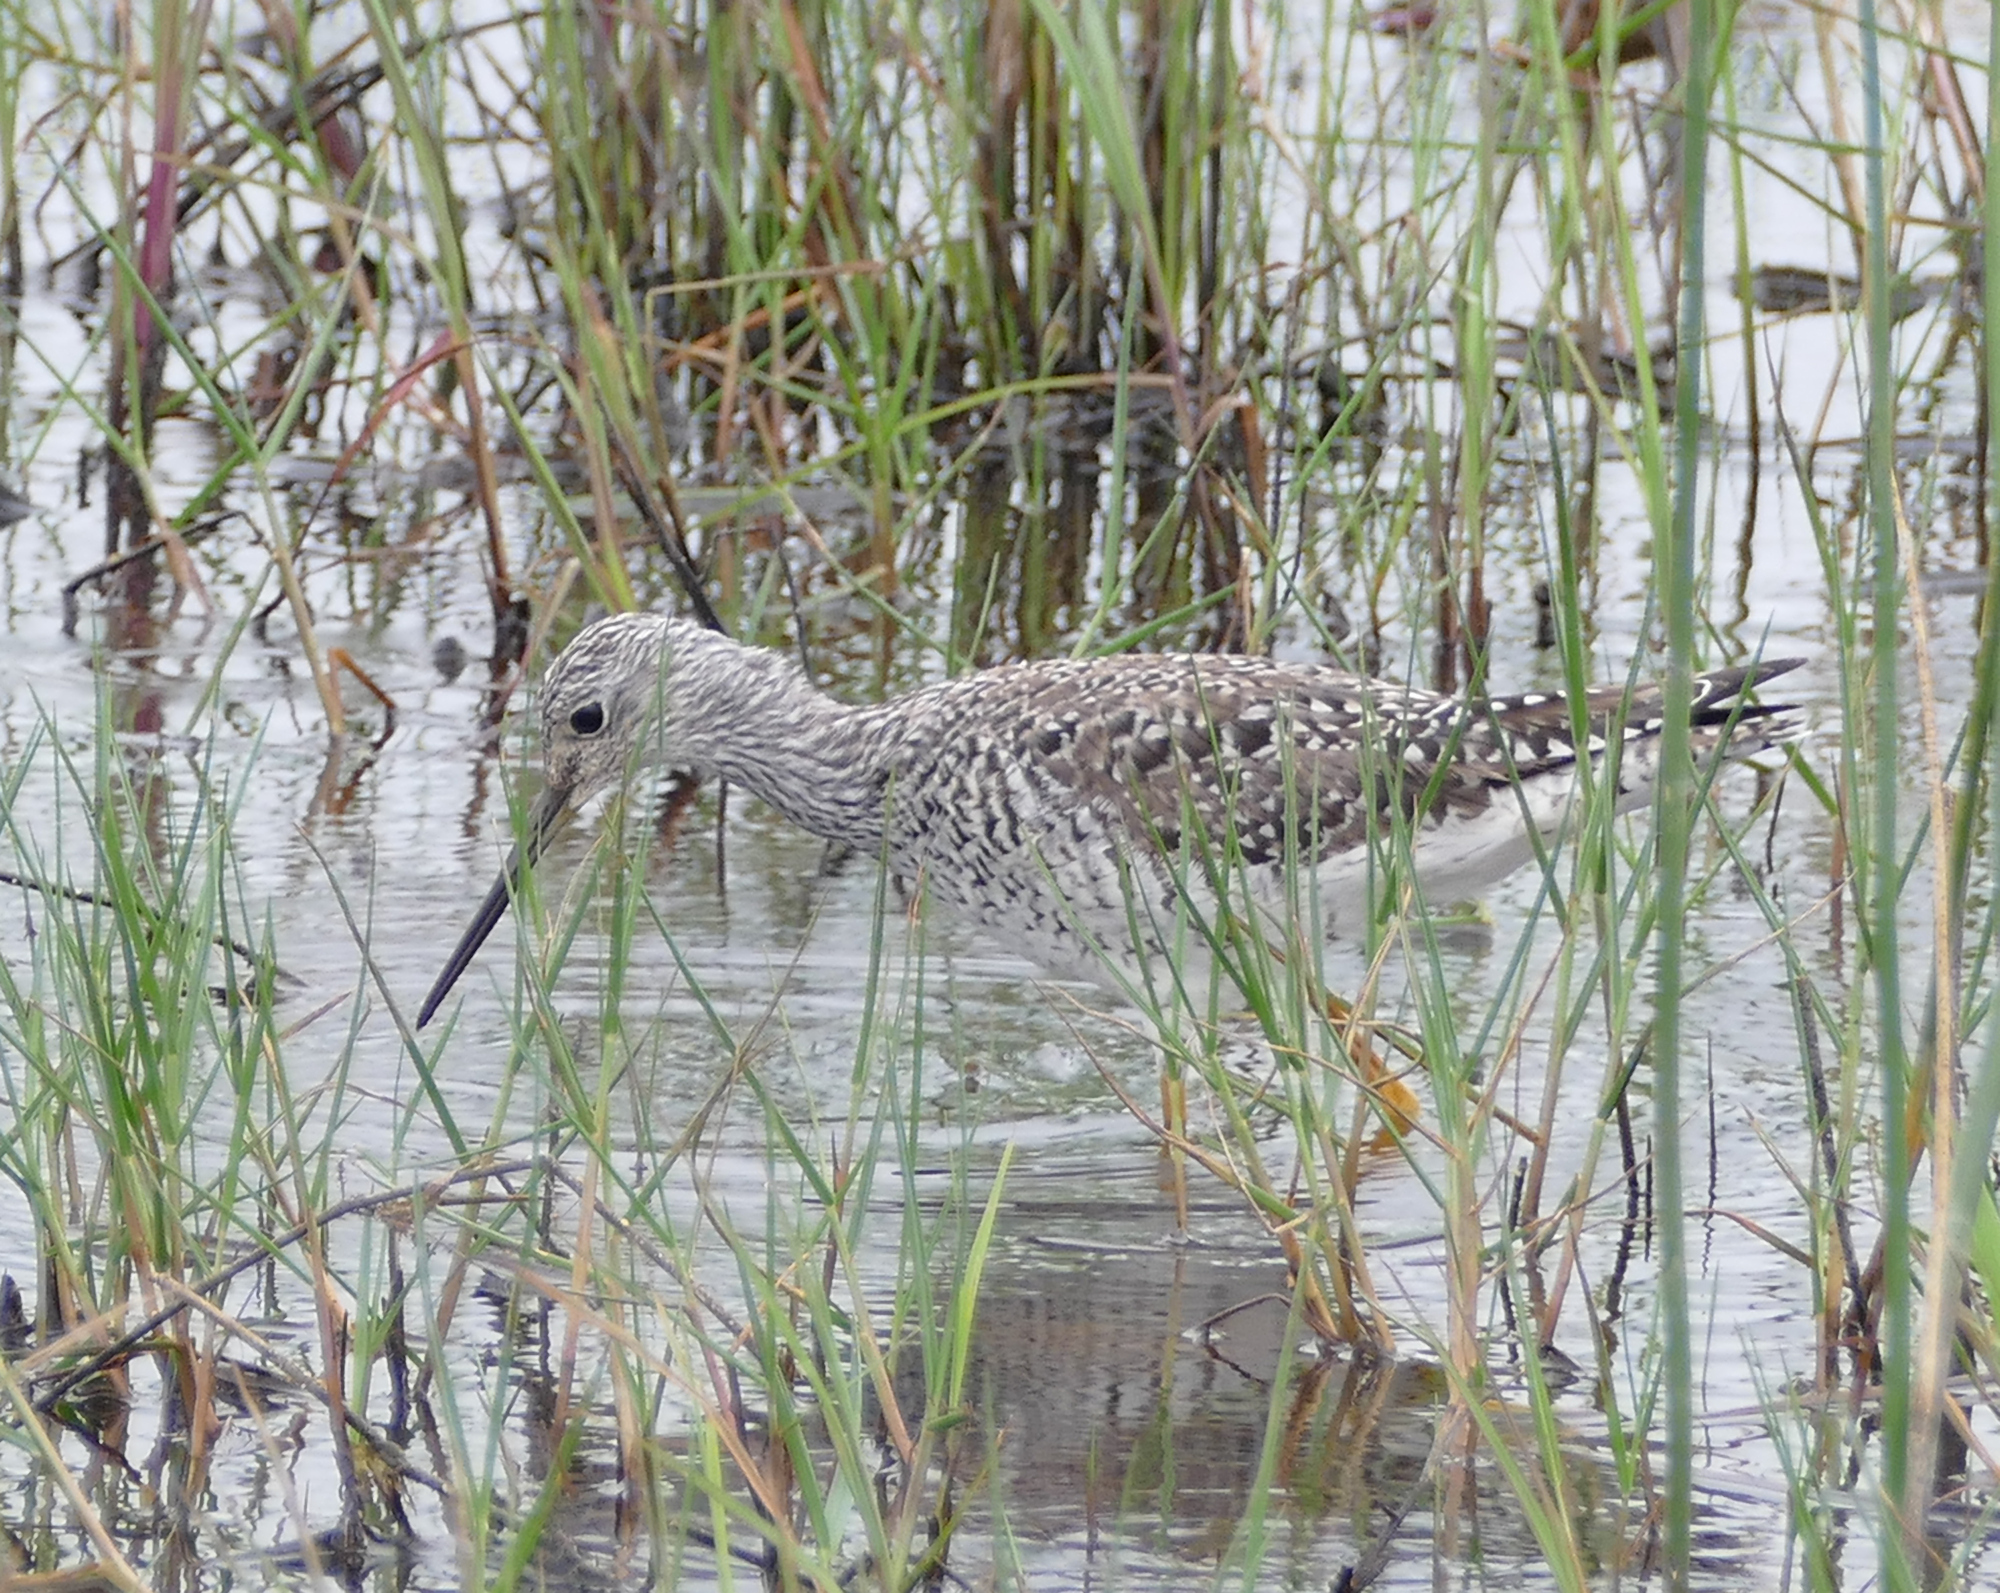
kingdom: Animalia
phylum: Chordata
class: Aves
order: Charadriiformes
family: Scolopacidae
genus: Tringa
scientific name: Tringa melanoleuca
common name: Greater yellowlegs
